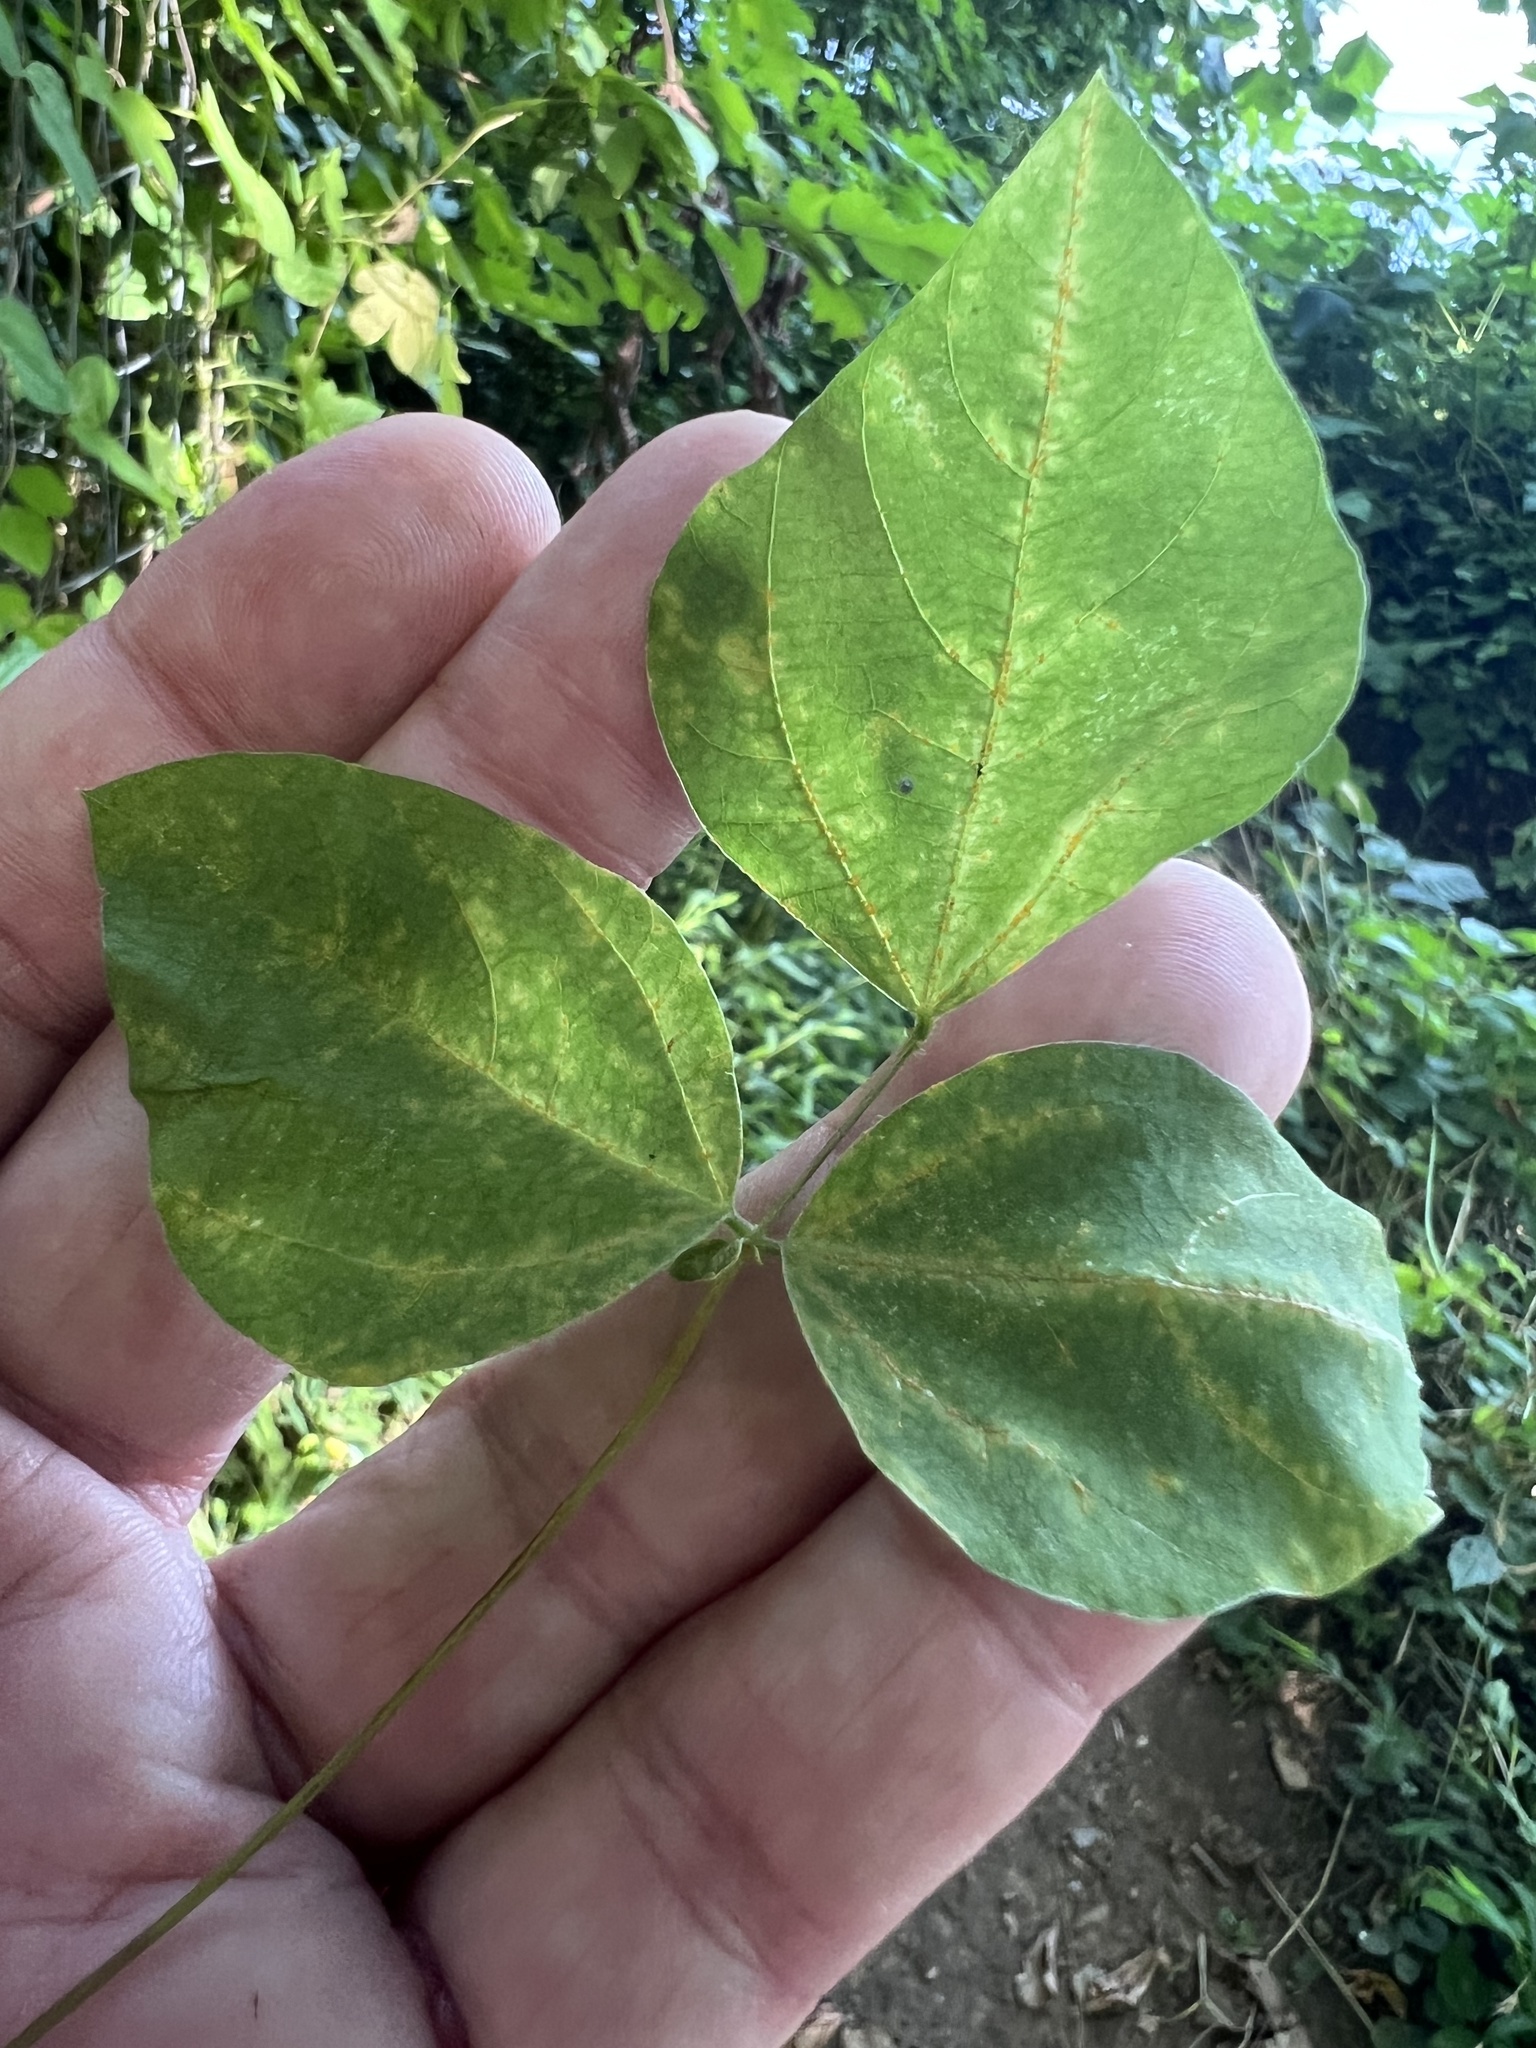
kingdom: Fungi
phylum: Chytridiomycota
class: Chytridiomycetes
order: Chytridiales
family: Synchytriaceae
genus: Miyabella
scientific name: Miyabella aecidioides
